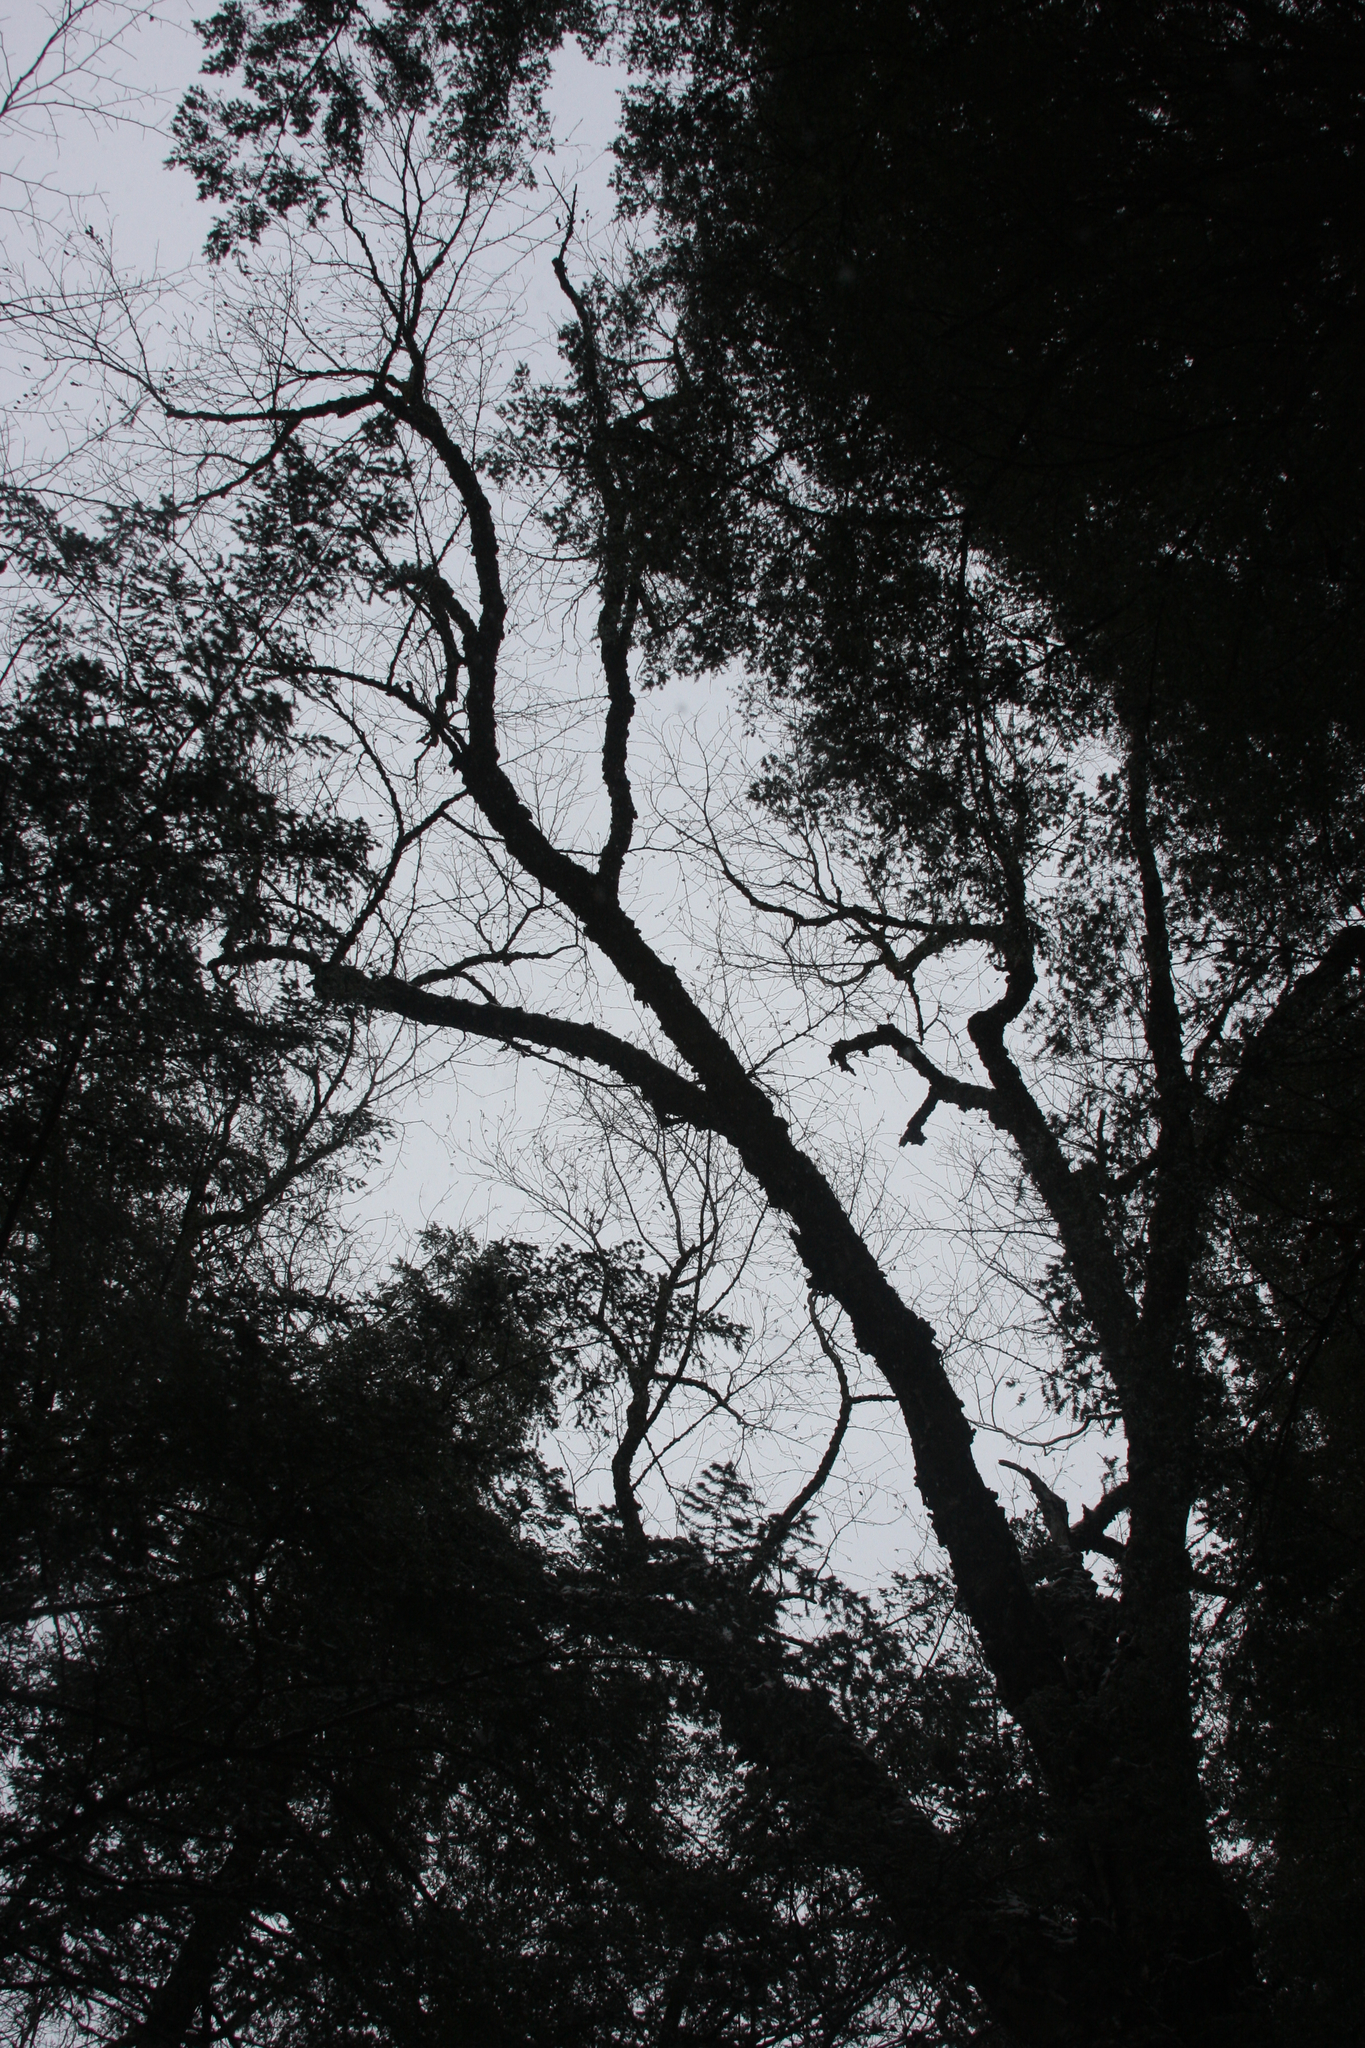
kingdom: Plantae
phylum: Tracheophyta
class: Magnoliopsida
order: Fagales
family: Betulaceae
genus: Betula
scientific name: Betula alleghaniensis
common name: Yellow birch
